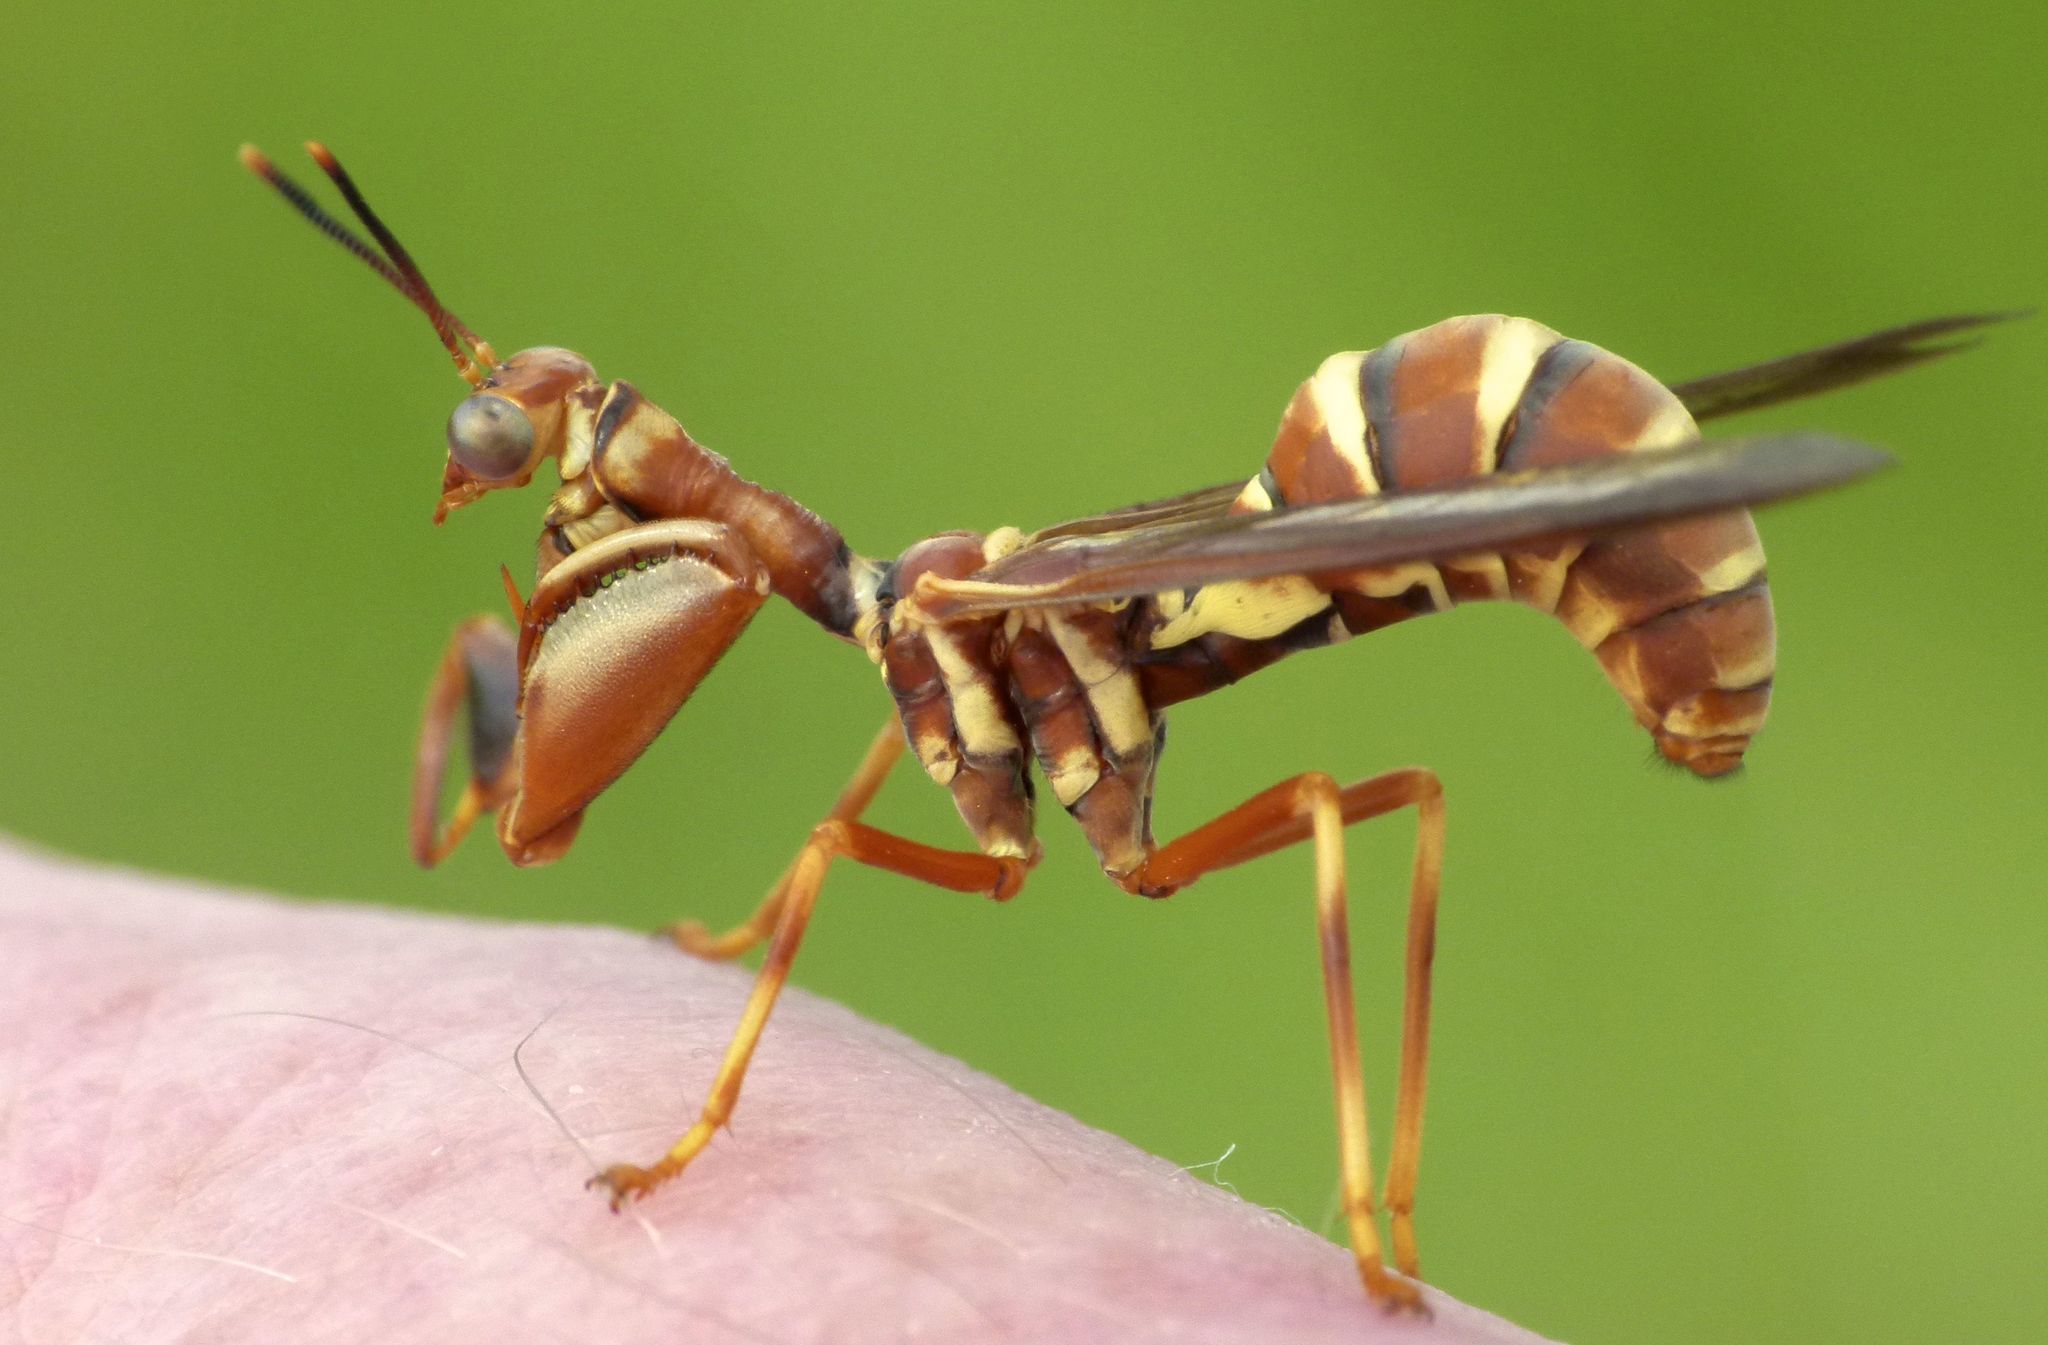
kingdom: Animalia
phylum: Arthropoda
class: Insecta
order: Neuroptera
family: Mantispidae
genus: Climaciella
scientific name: Climaciella brunnea
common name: Brown wasp mantidfly
